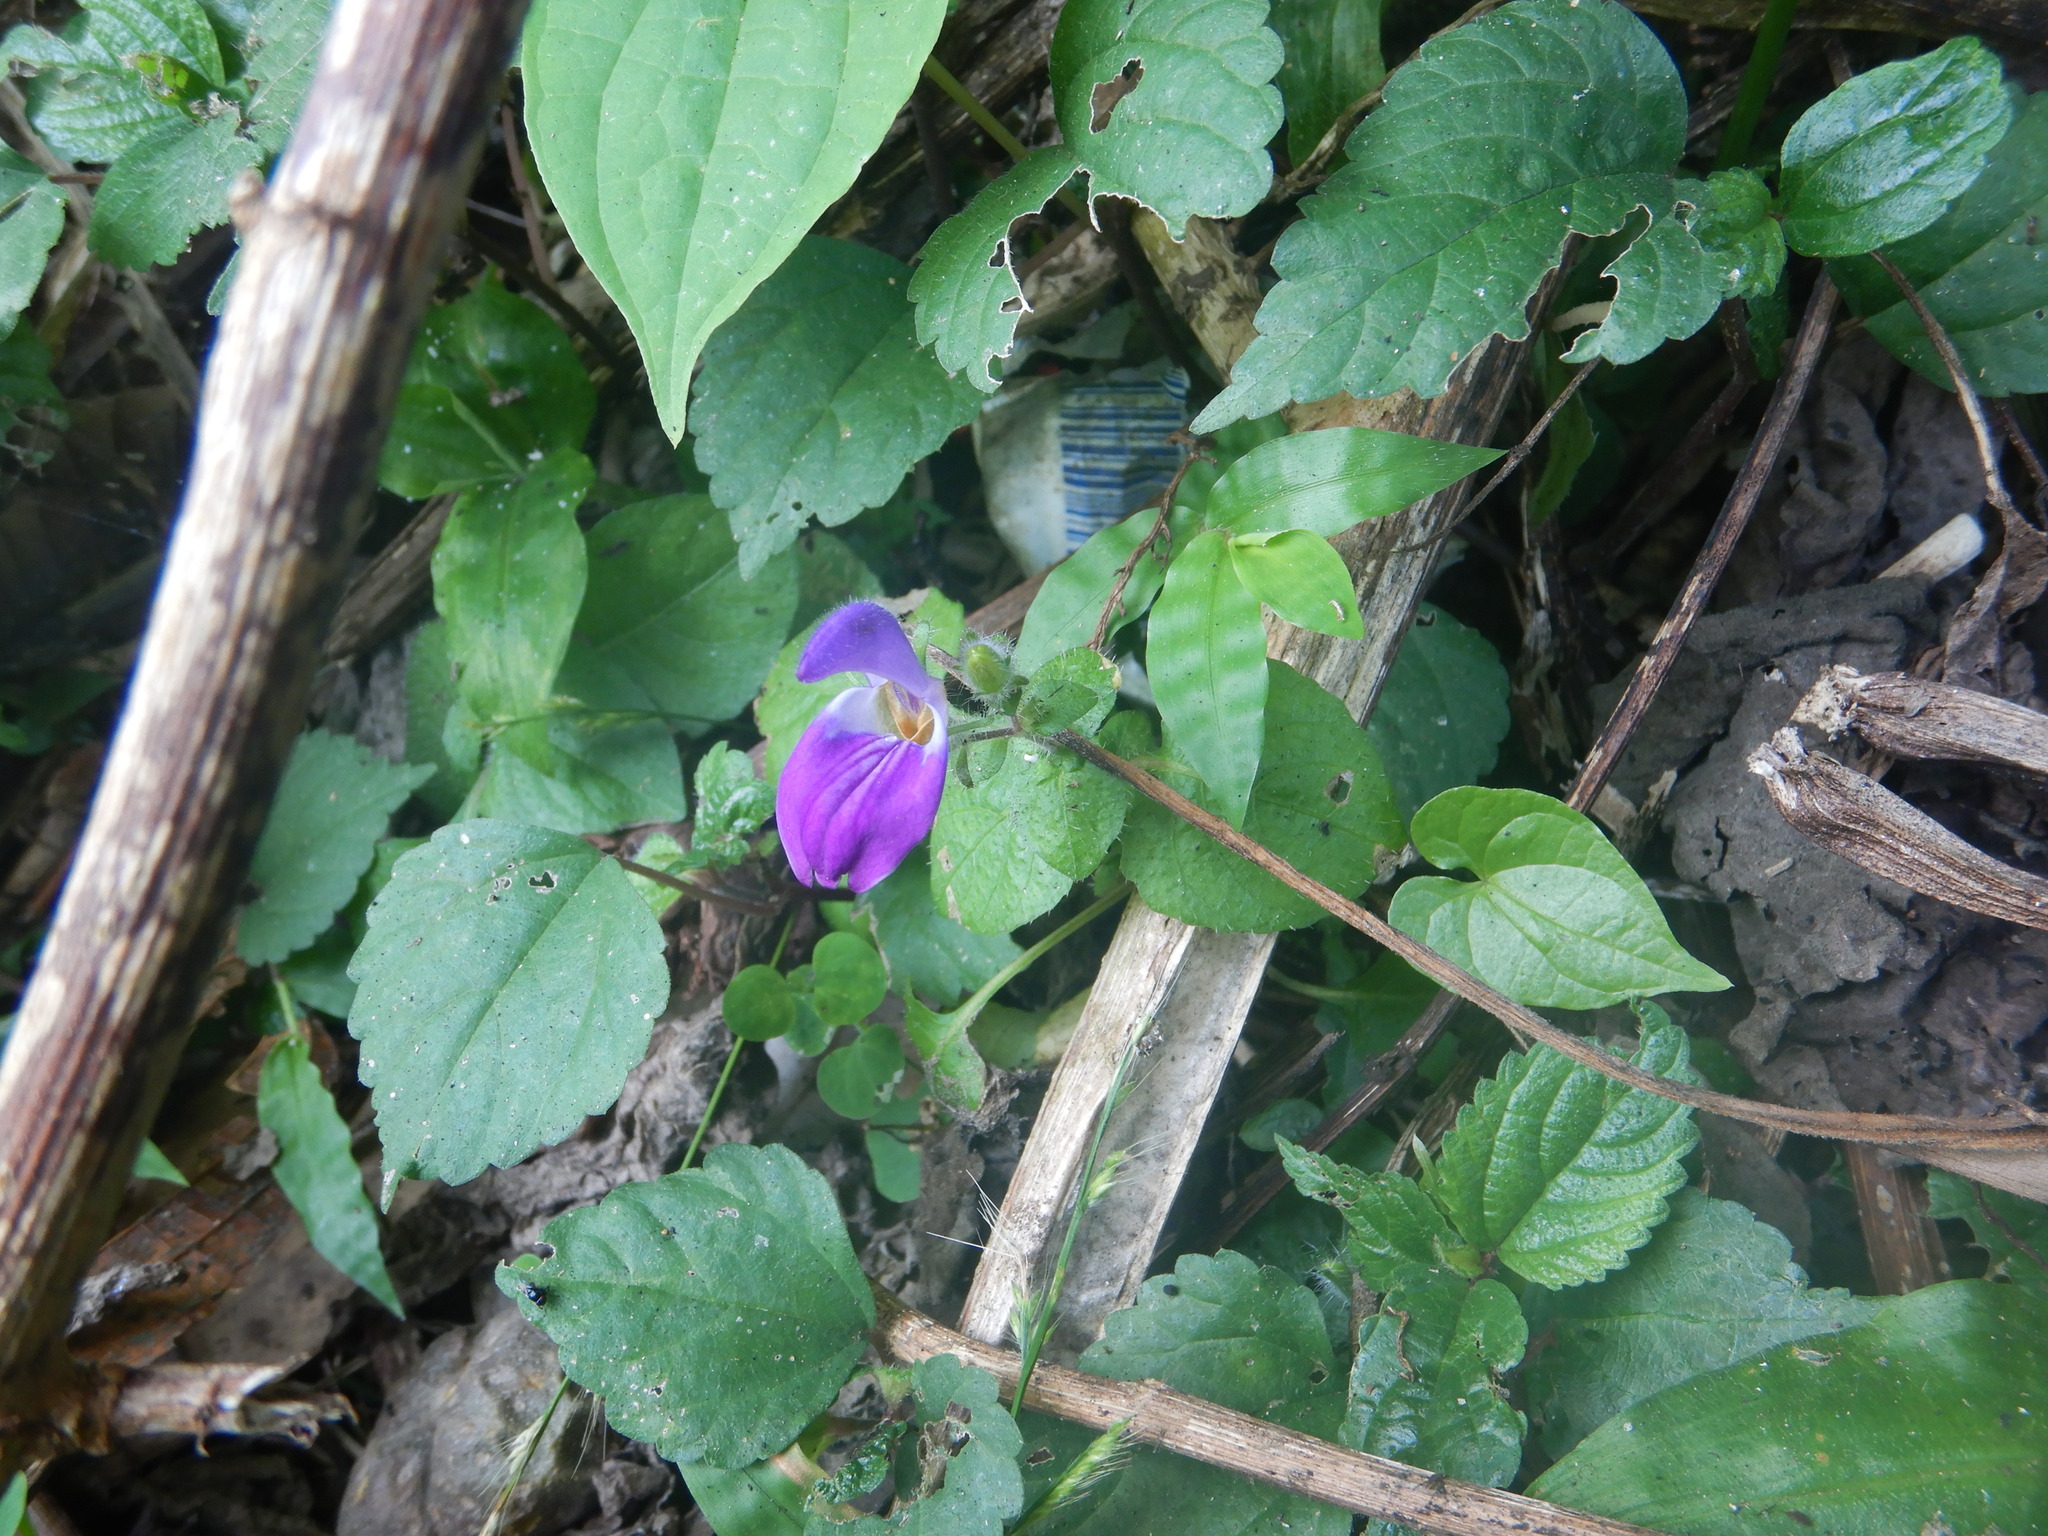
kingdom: Plantae
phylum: Tracheophyta
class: Magnoliopsida
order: Lamiales
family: Acanthaceae
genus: Brillantaisia
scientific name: Brillantaisia lamium
